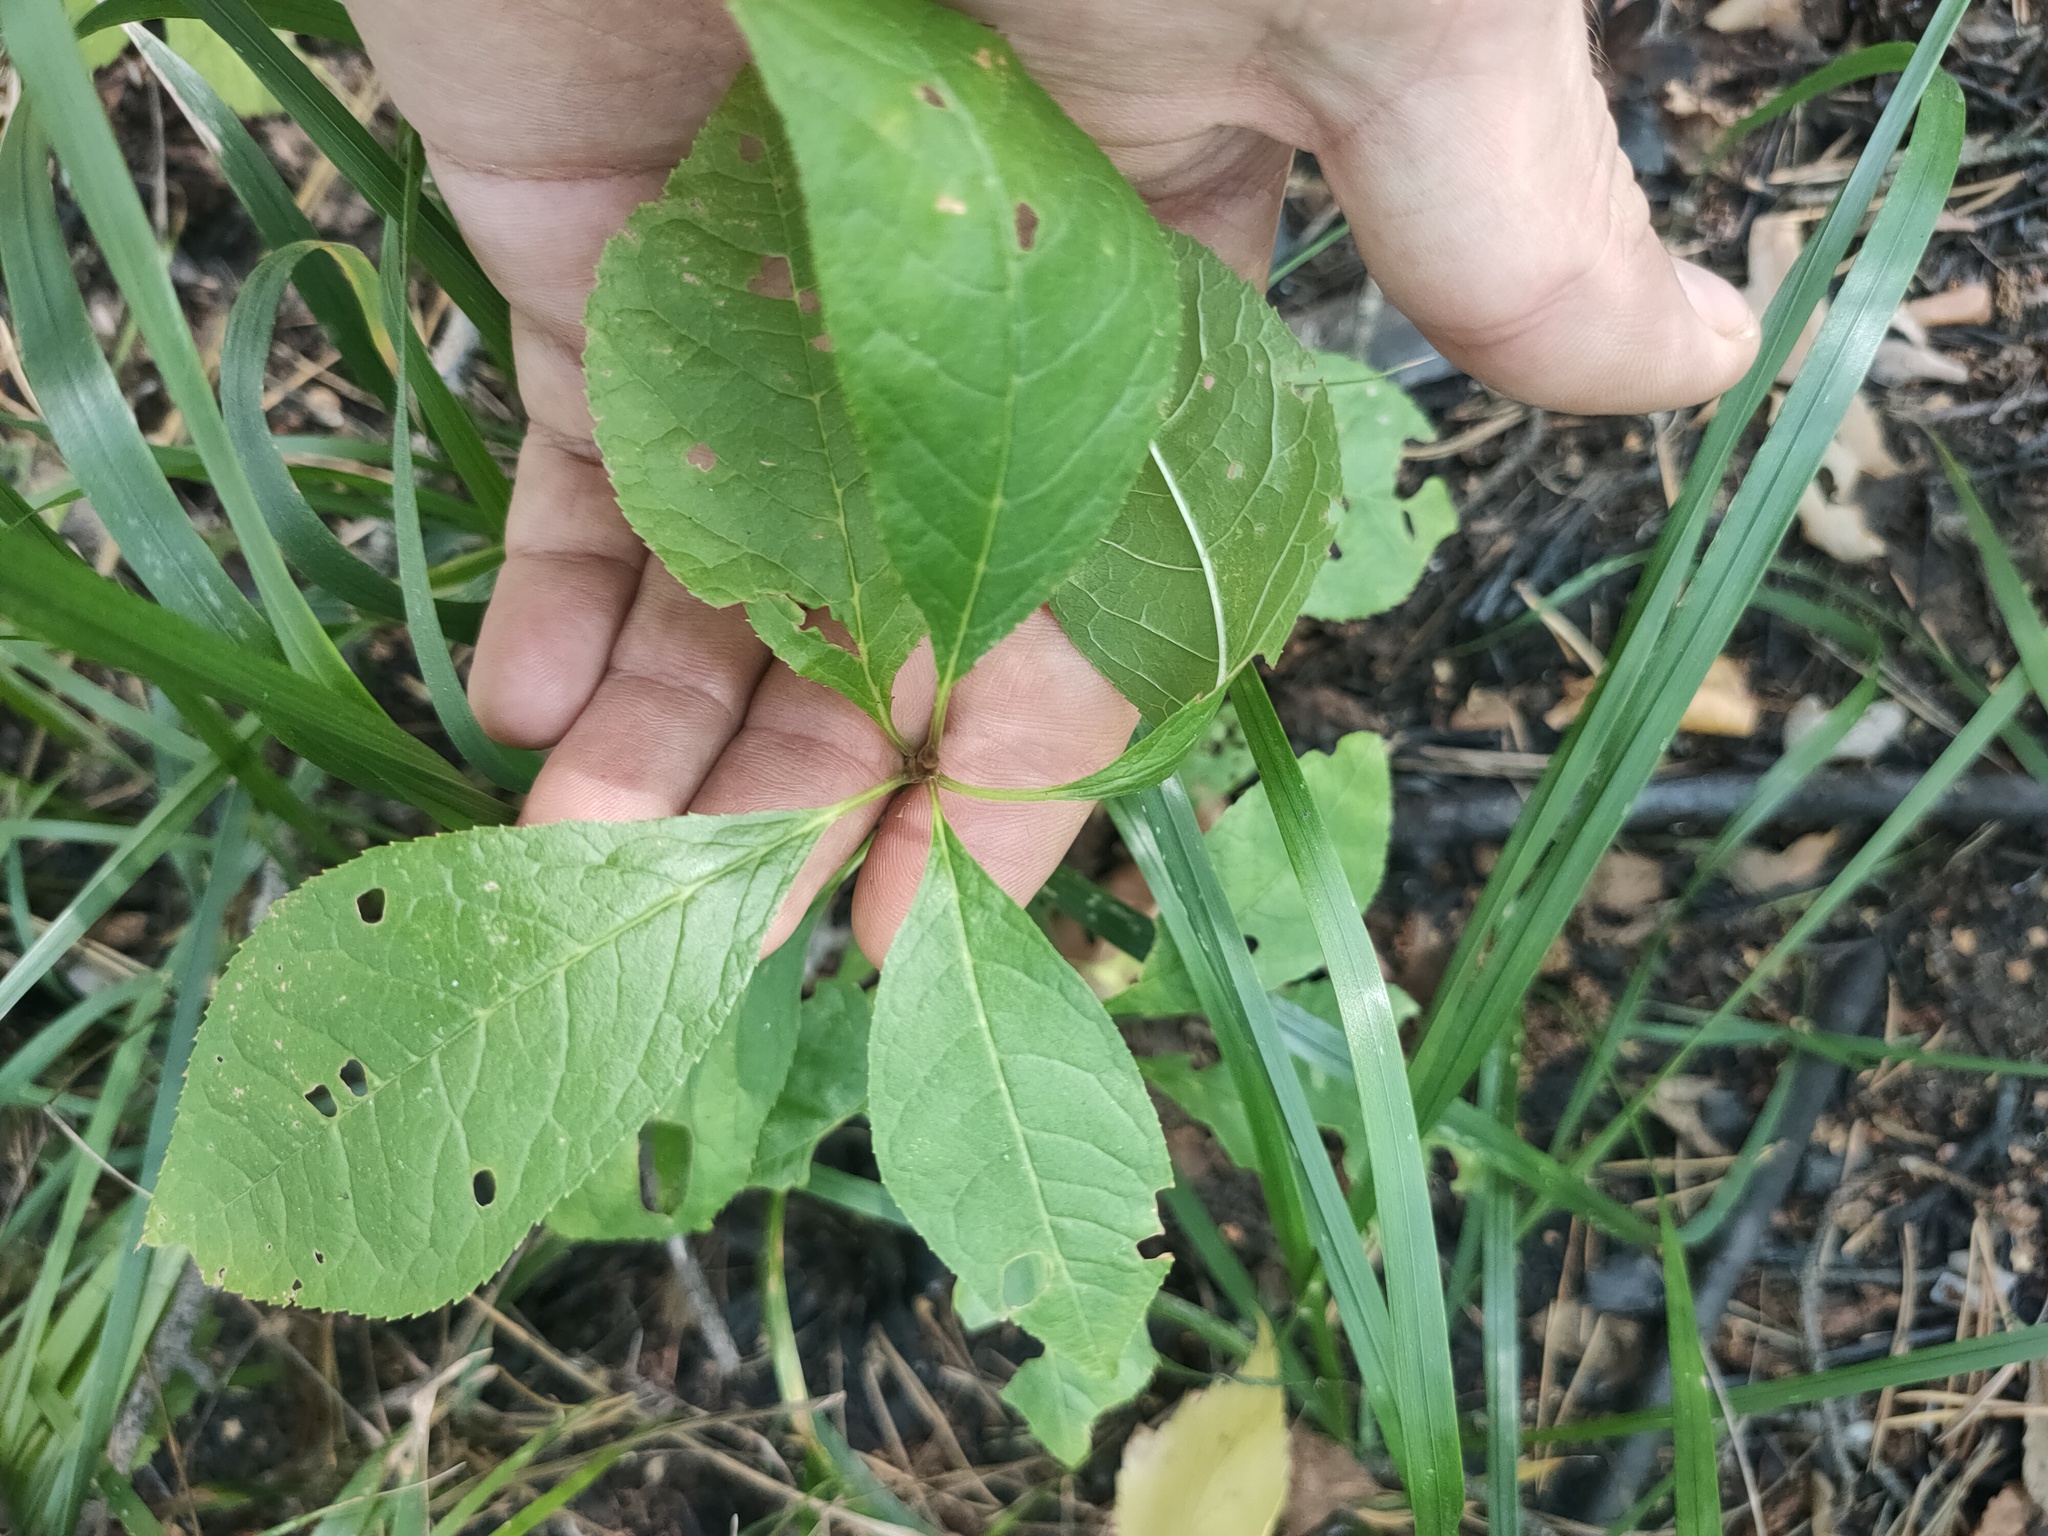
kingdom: Plantae
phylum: Tracheophyta
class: Magnoliopsida
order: Rosales
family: Rosaceae
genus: Prunus
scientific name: Prunus padus
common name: Bird cherry
